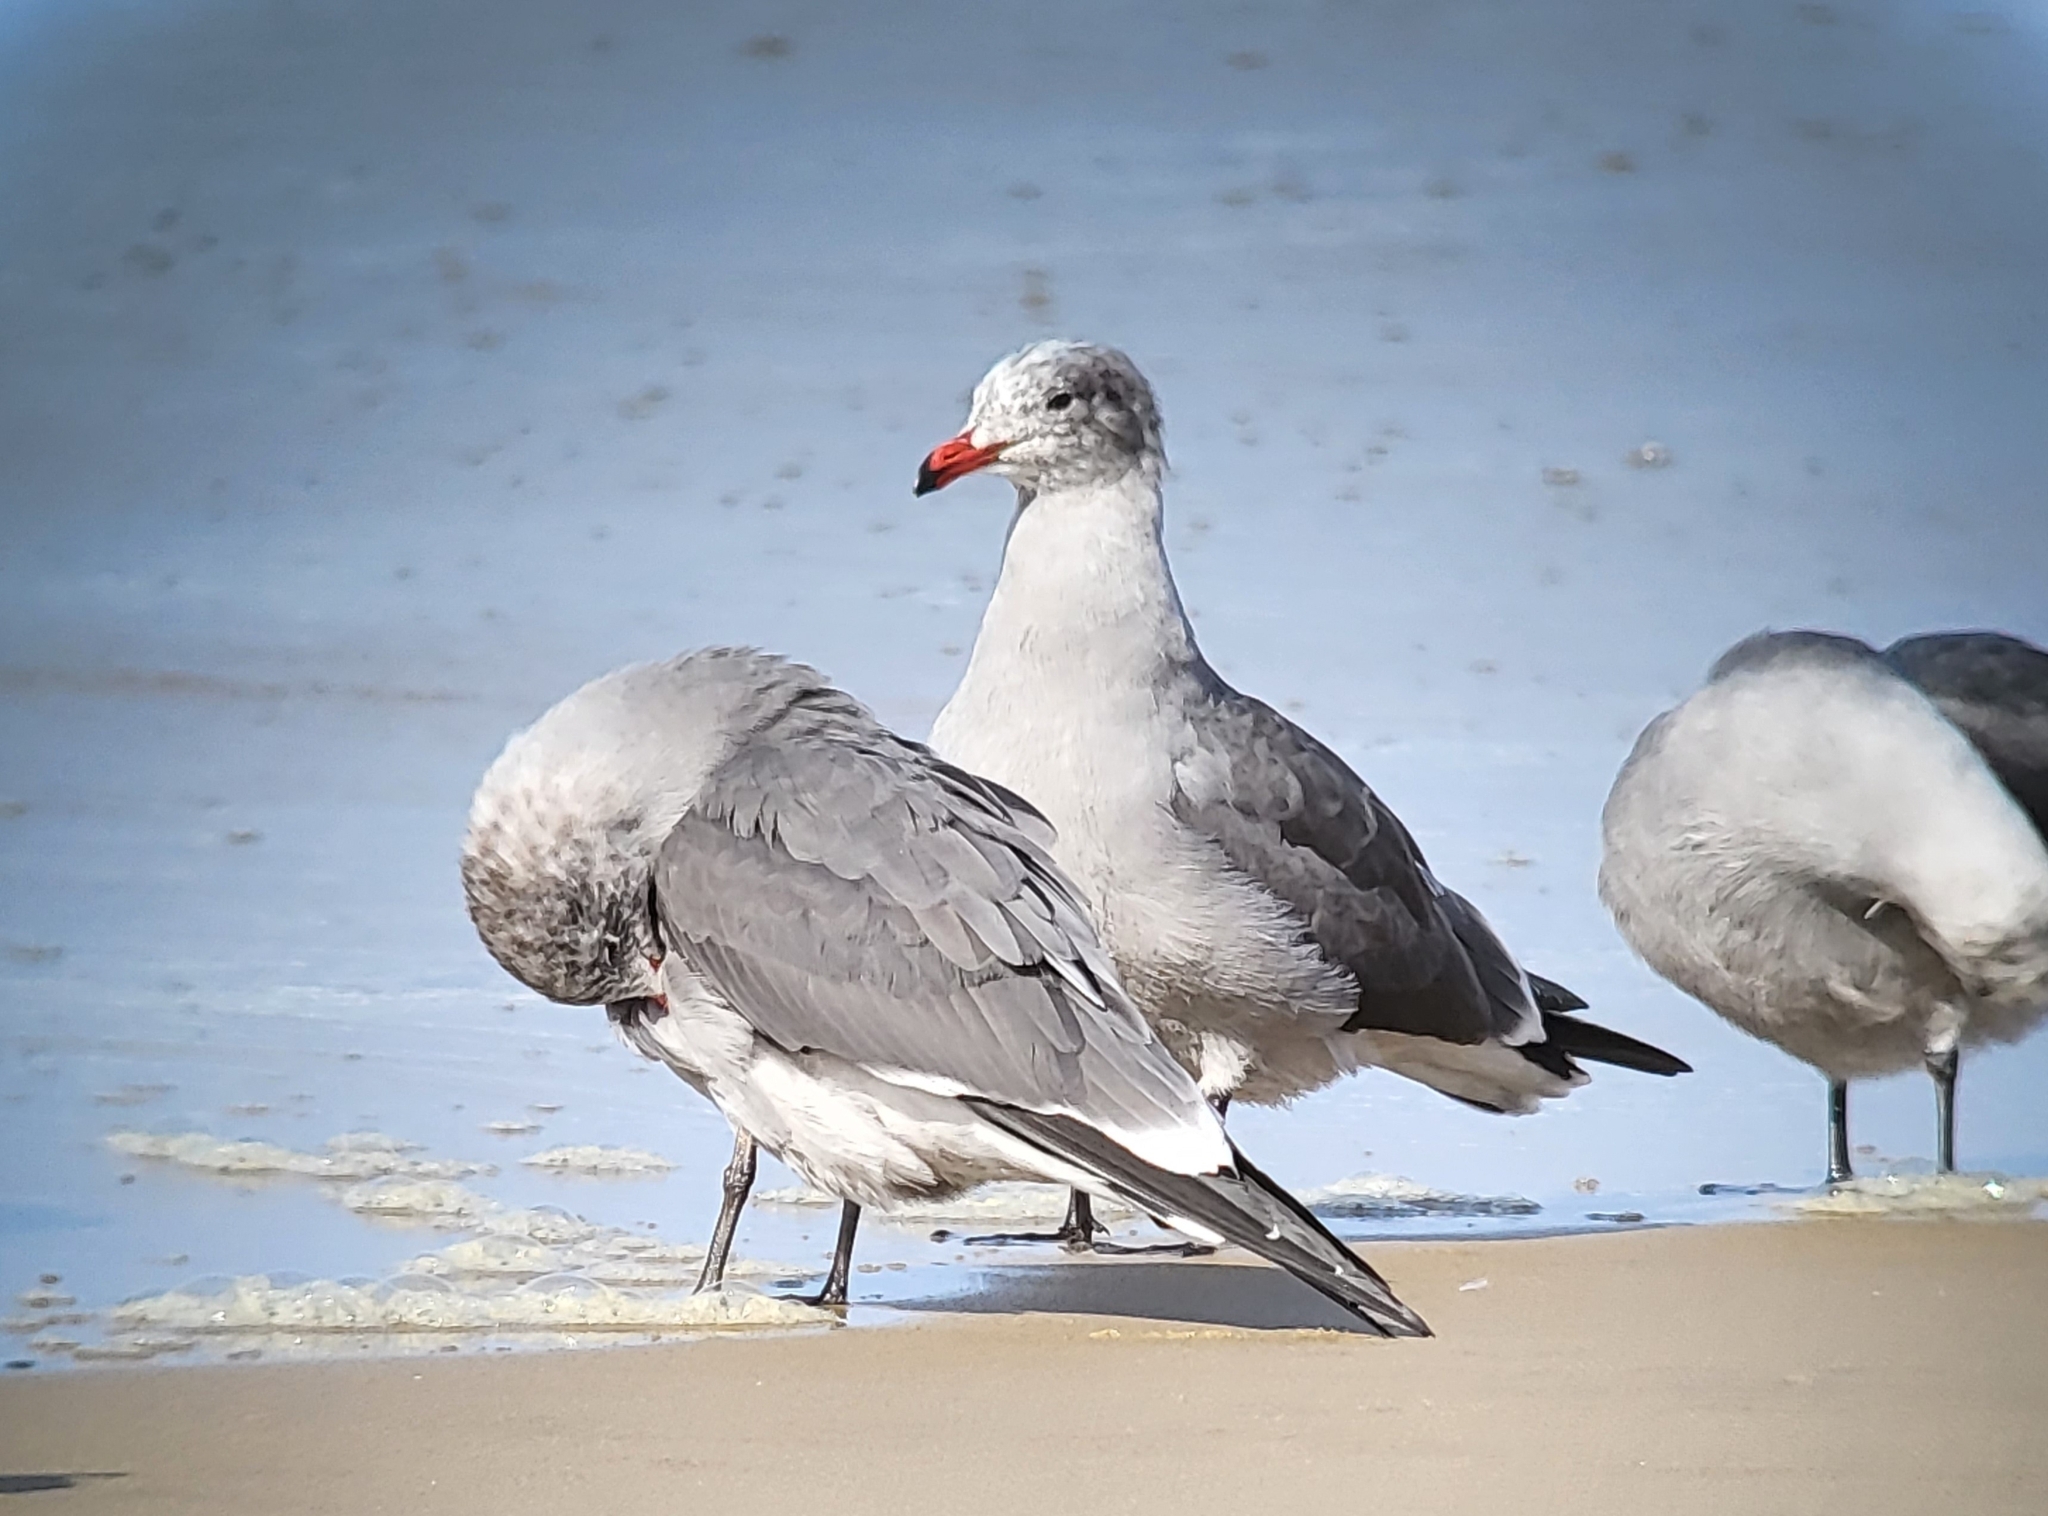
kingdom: Animalia
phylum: Chordata
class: Aves
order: Charadriiformes
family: Laridae
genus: Larus
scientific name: Larus heermanni
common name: Heermann's gull
